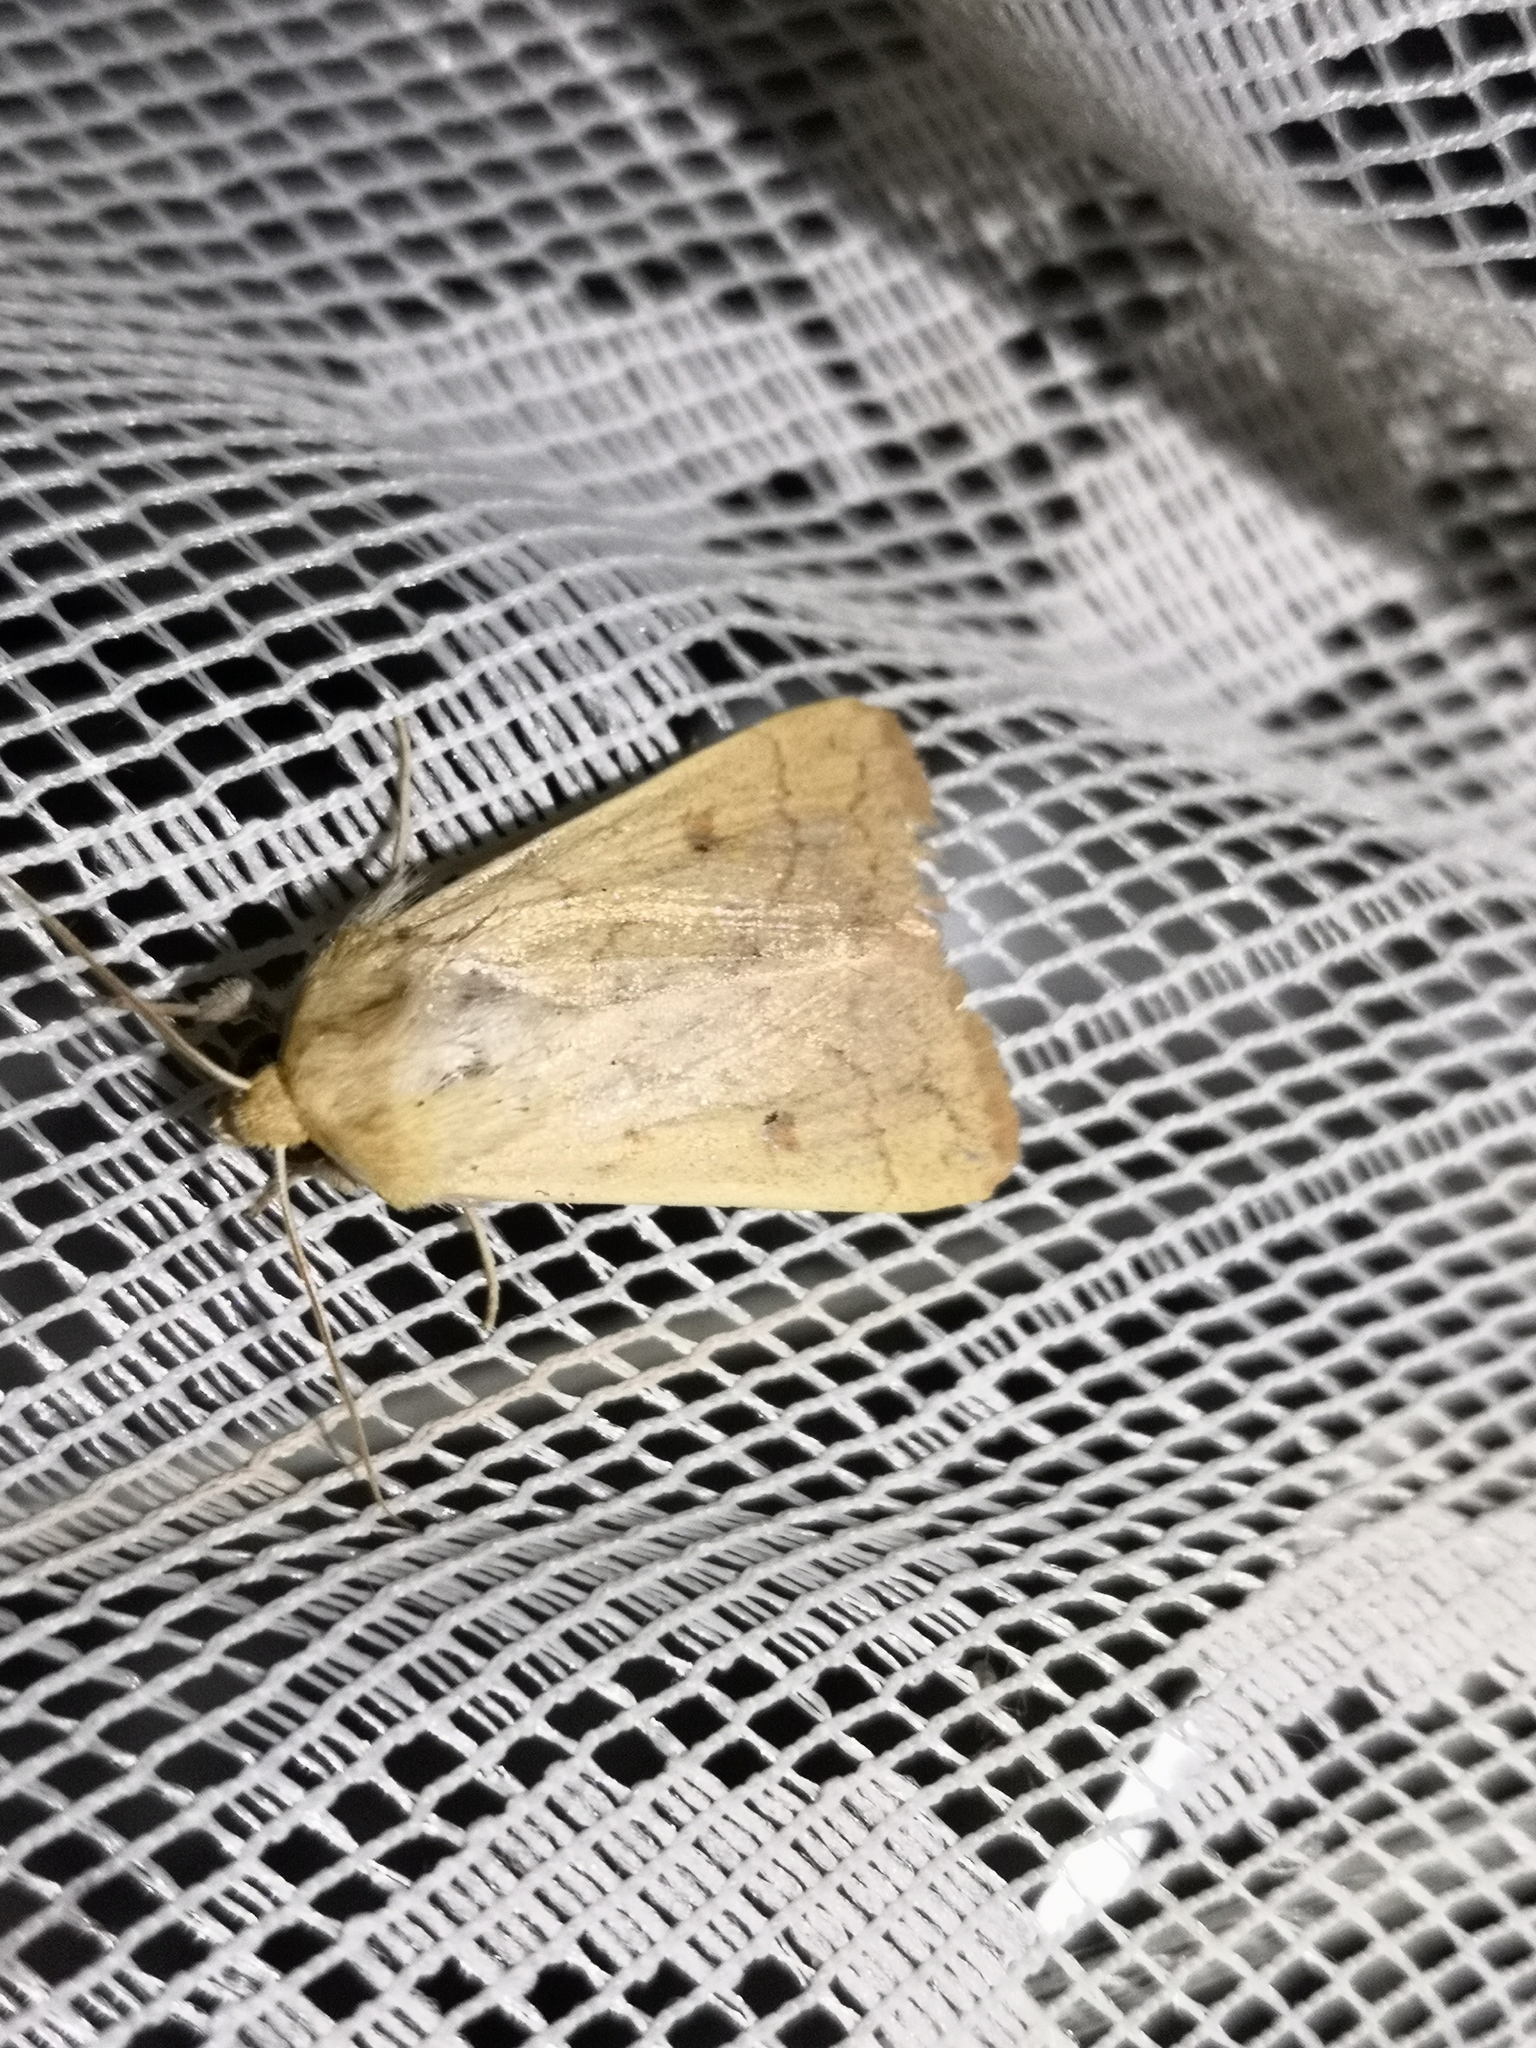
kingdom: Animalia
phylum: Arthropoda
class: Insecta
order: Lepidoptera
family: Noctuidae
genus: Mythimna
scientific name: Mythimna vitellina
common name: Delicate
